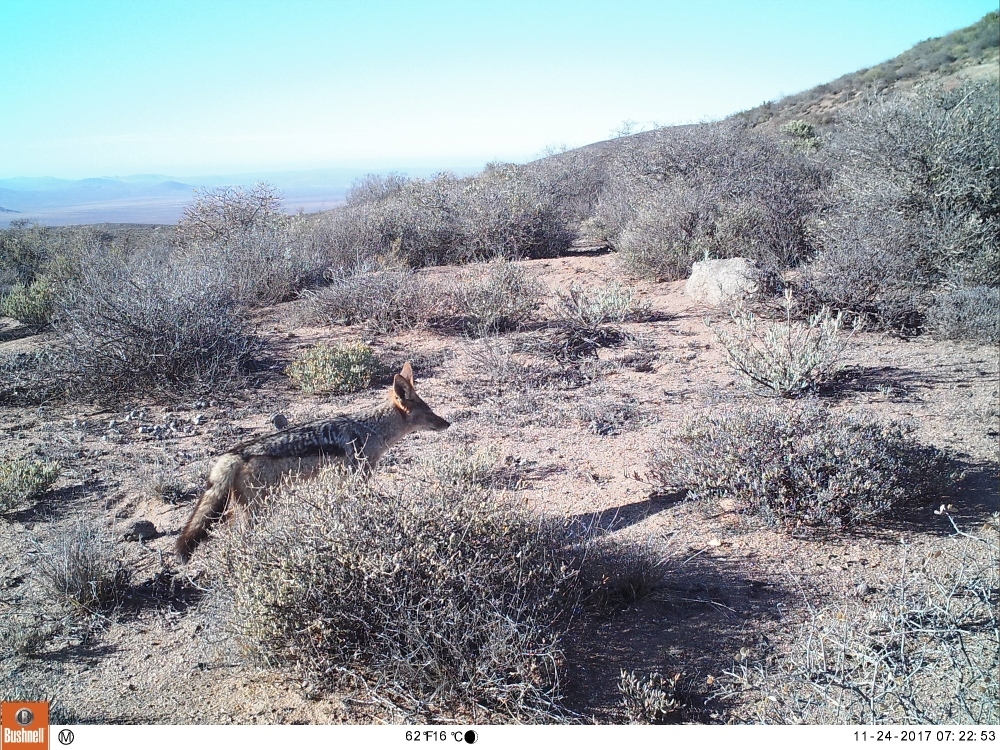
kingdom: Animalia
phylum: Chordata
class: Mammalia
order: Carnivora
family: Canidae
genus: Lupulella
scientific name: Lupulella
